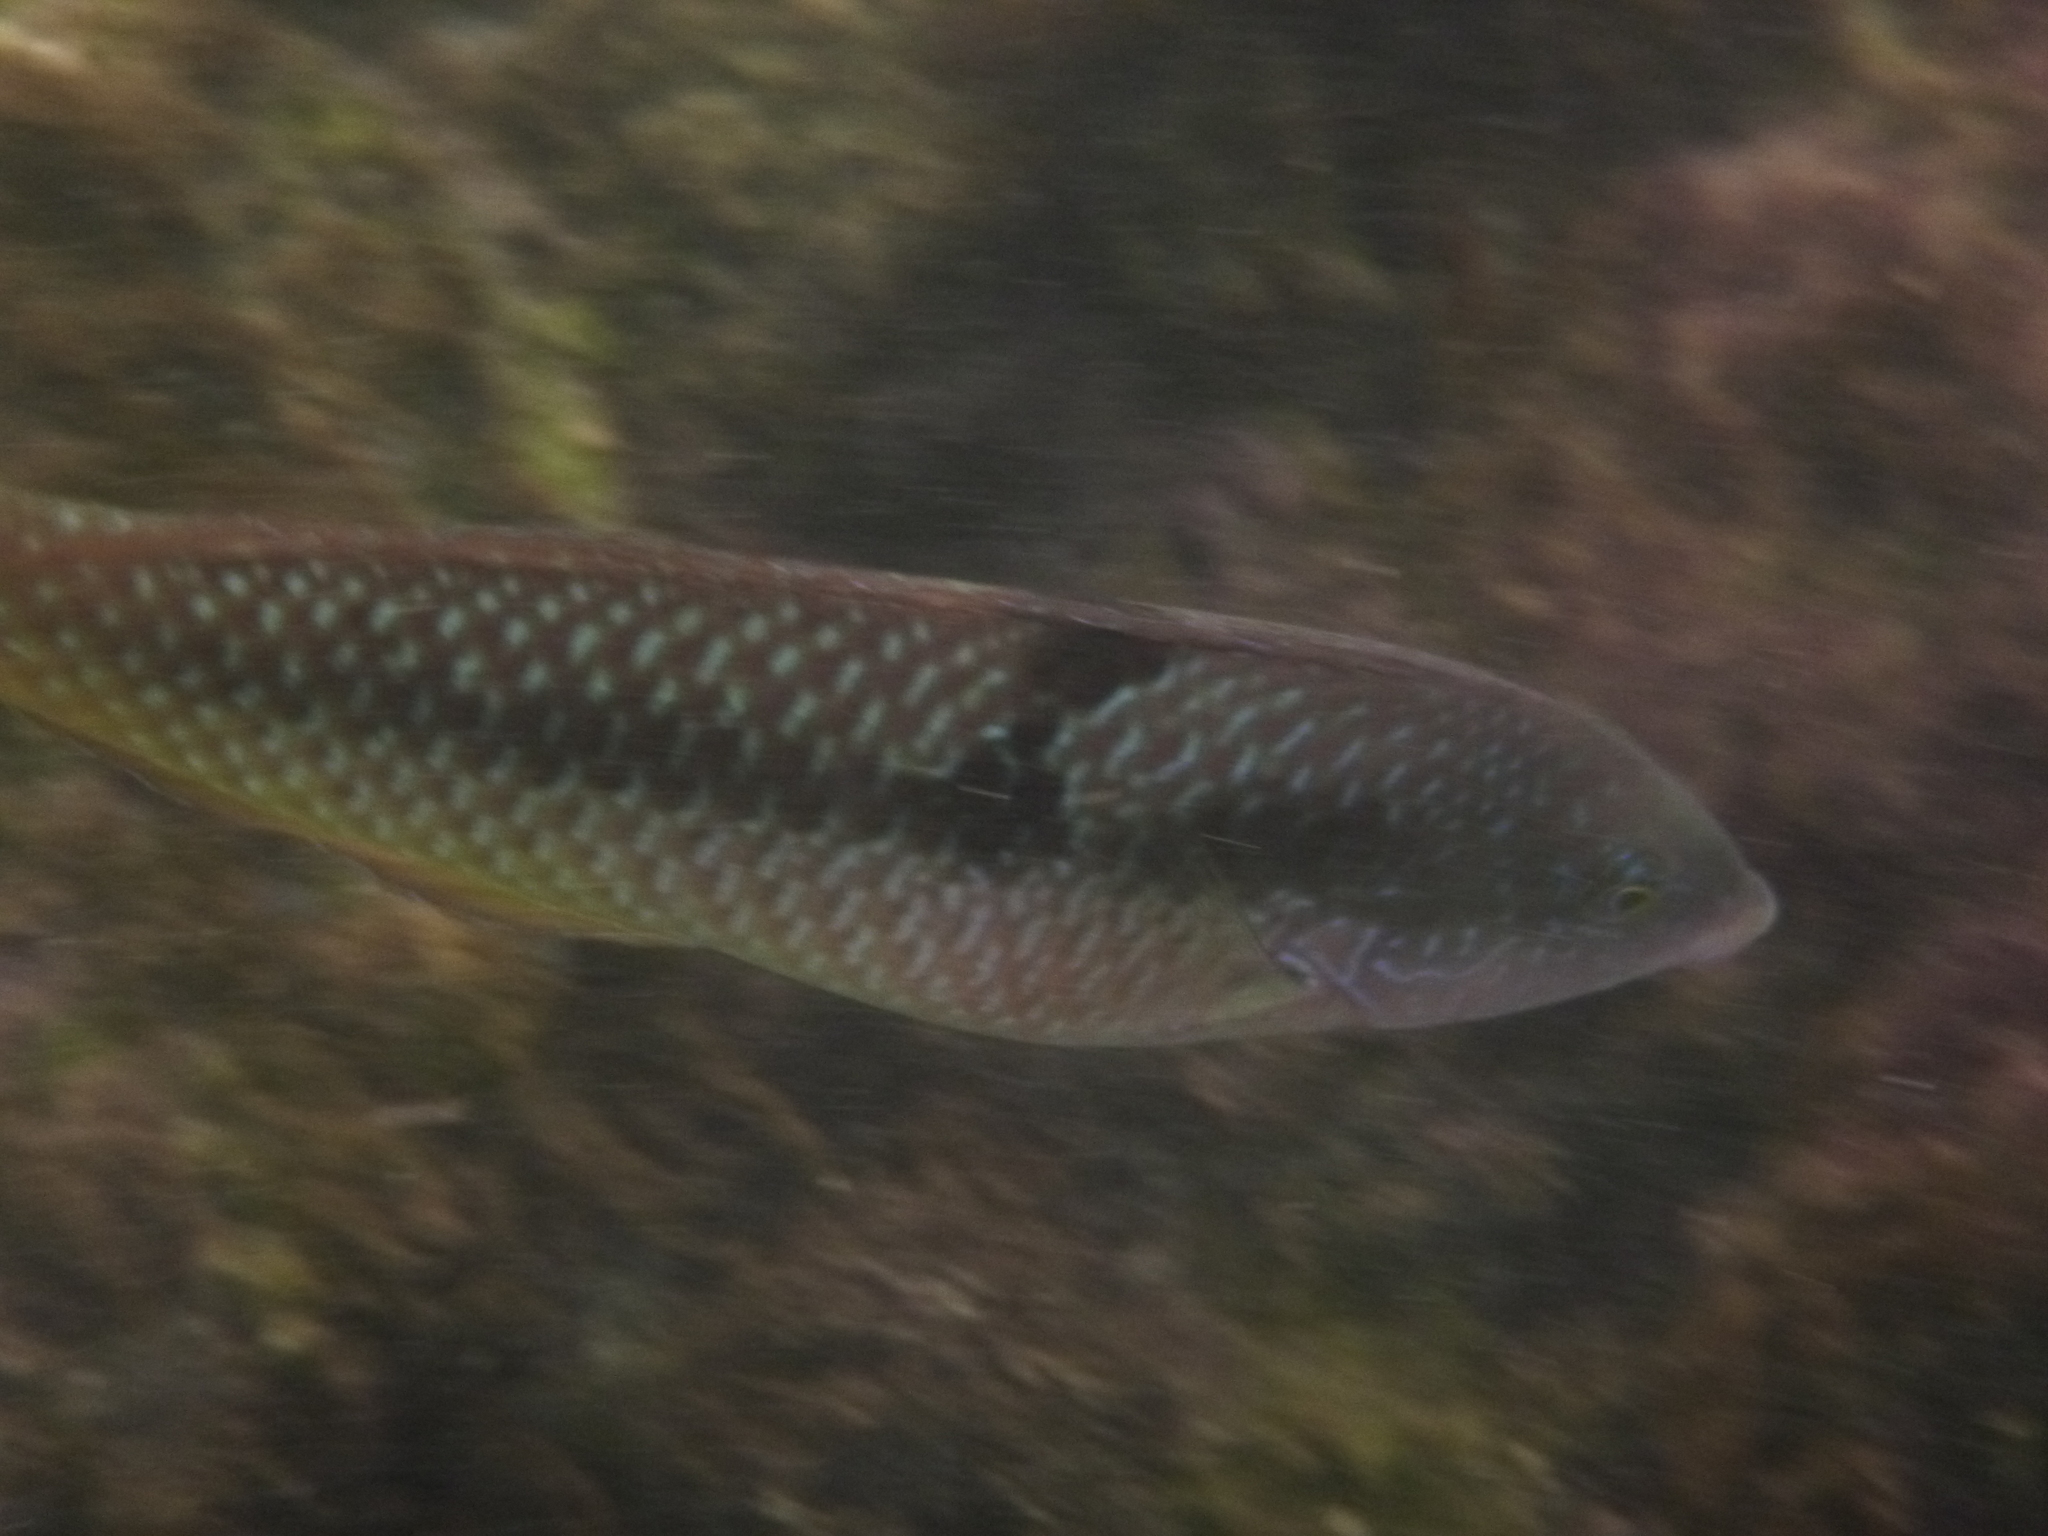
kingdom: Animalia
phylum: Chordata
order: Perciformes
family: Labridae
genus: Halichoeres
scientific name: Halichoeres nicholsi
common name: Spinster wrasse
